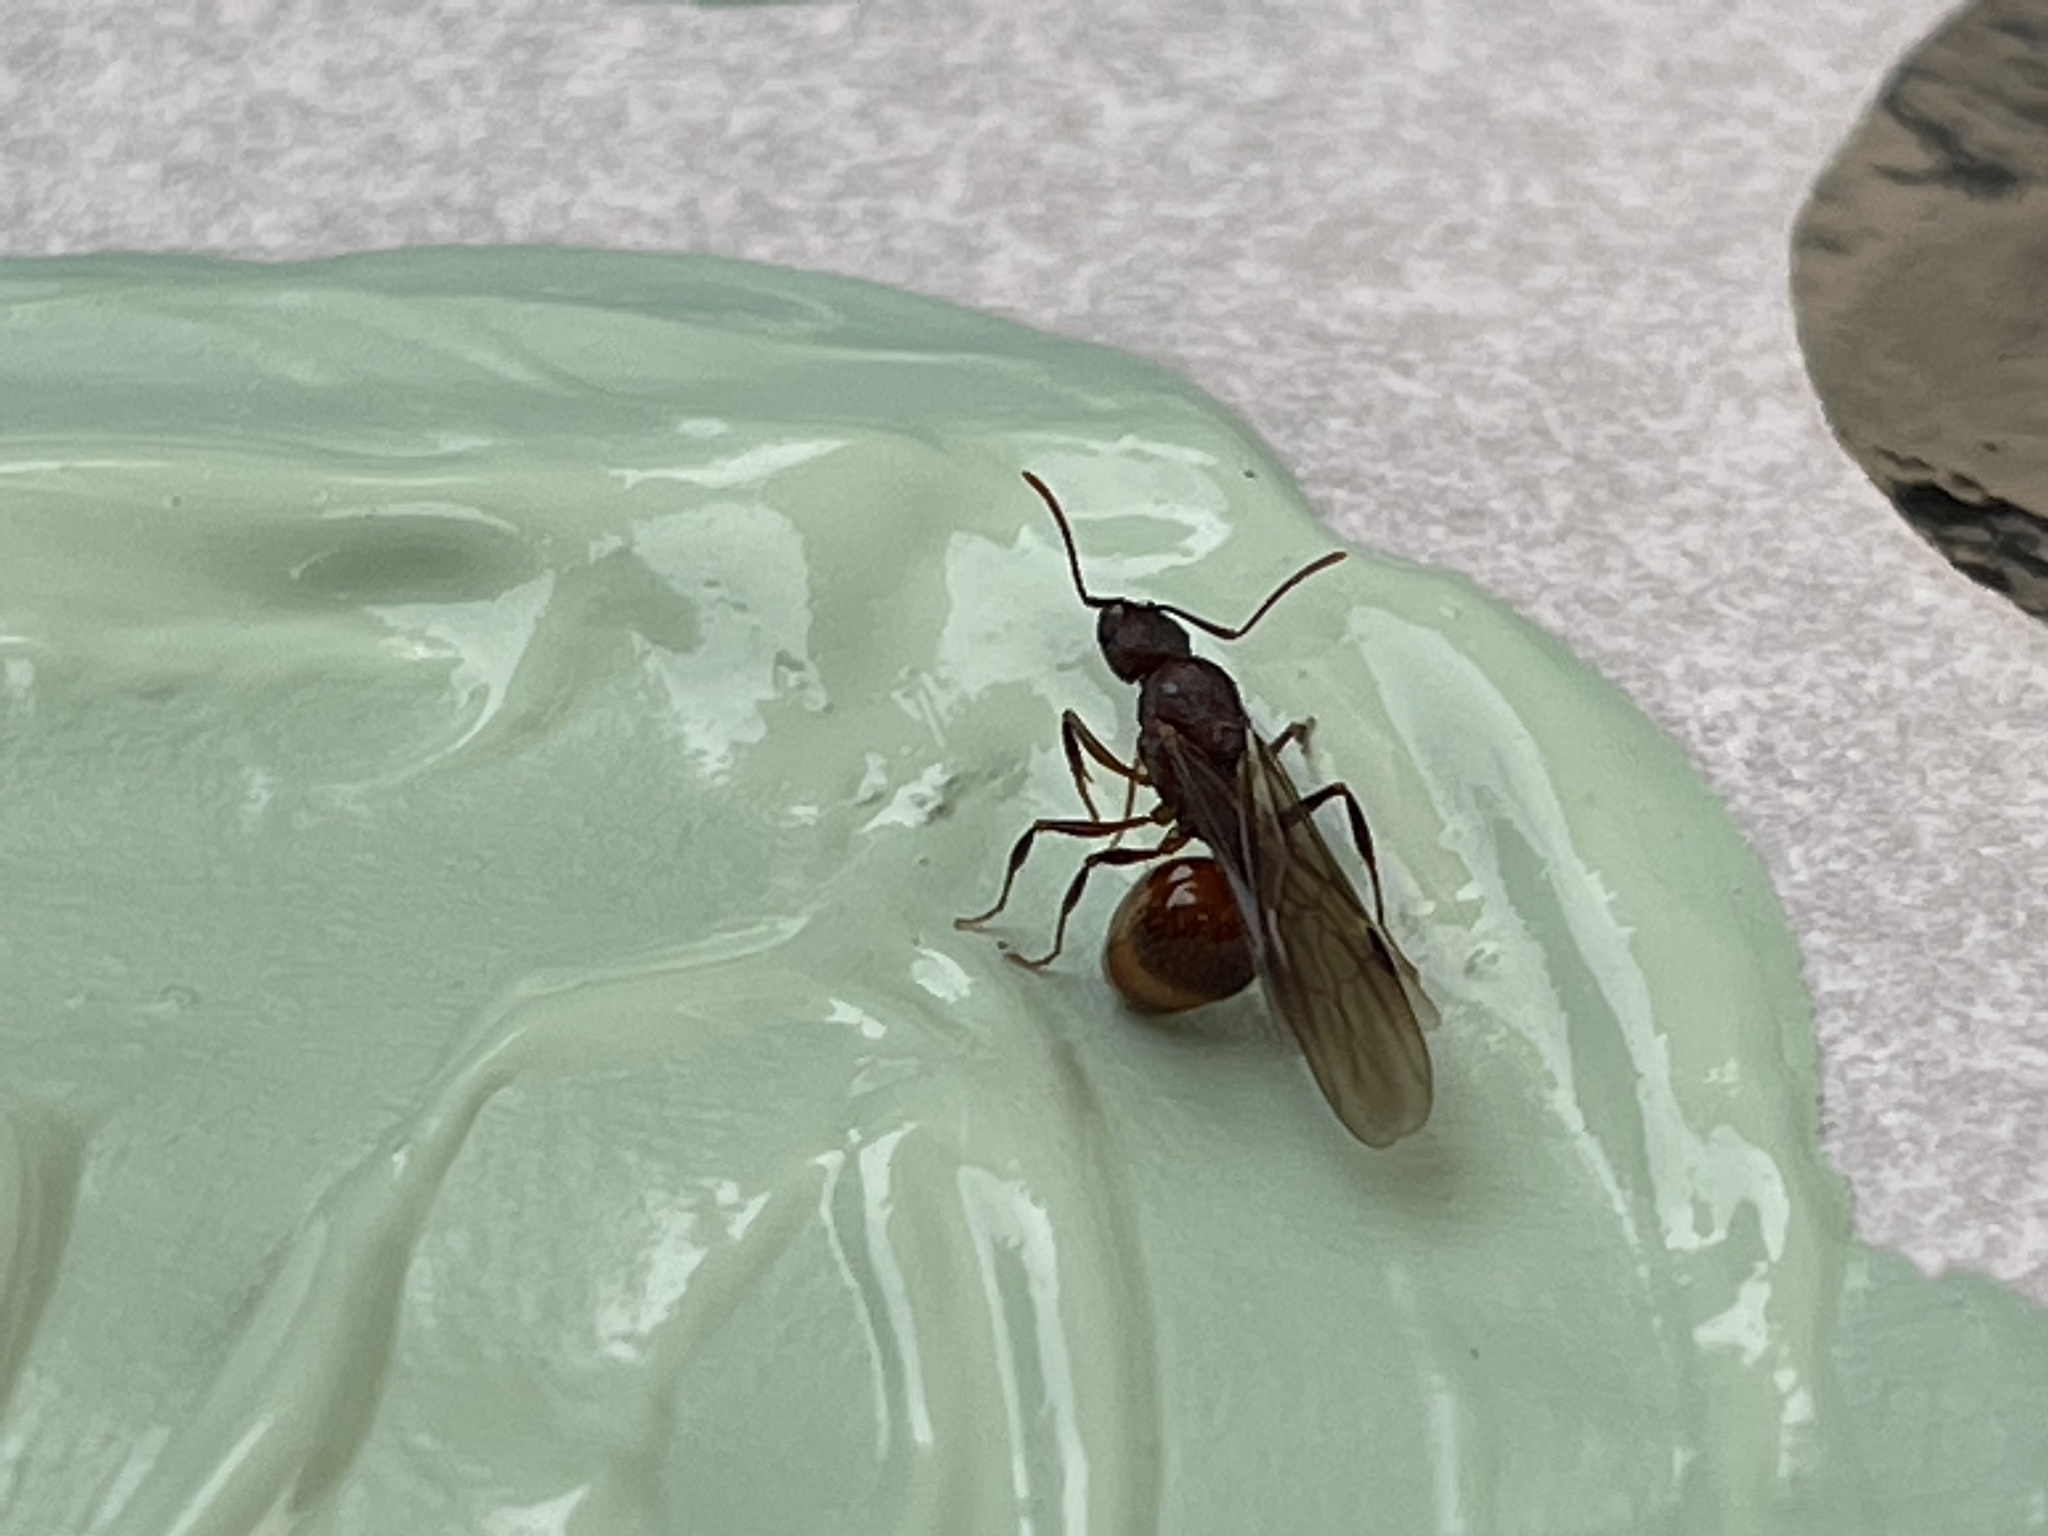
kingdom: Animalia
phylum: Arthropoda
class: Insecta
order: Hymenoptera
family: Formicidae
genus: Aphaenogaster
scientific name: Aphaenogaster fulva
